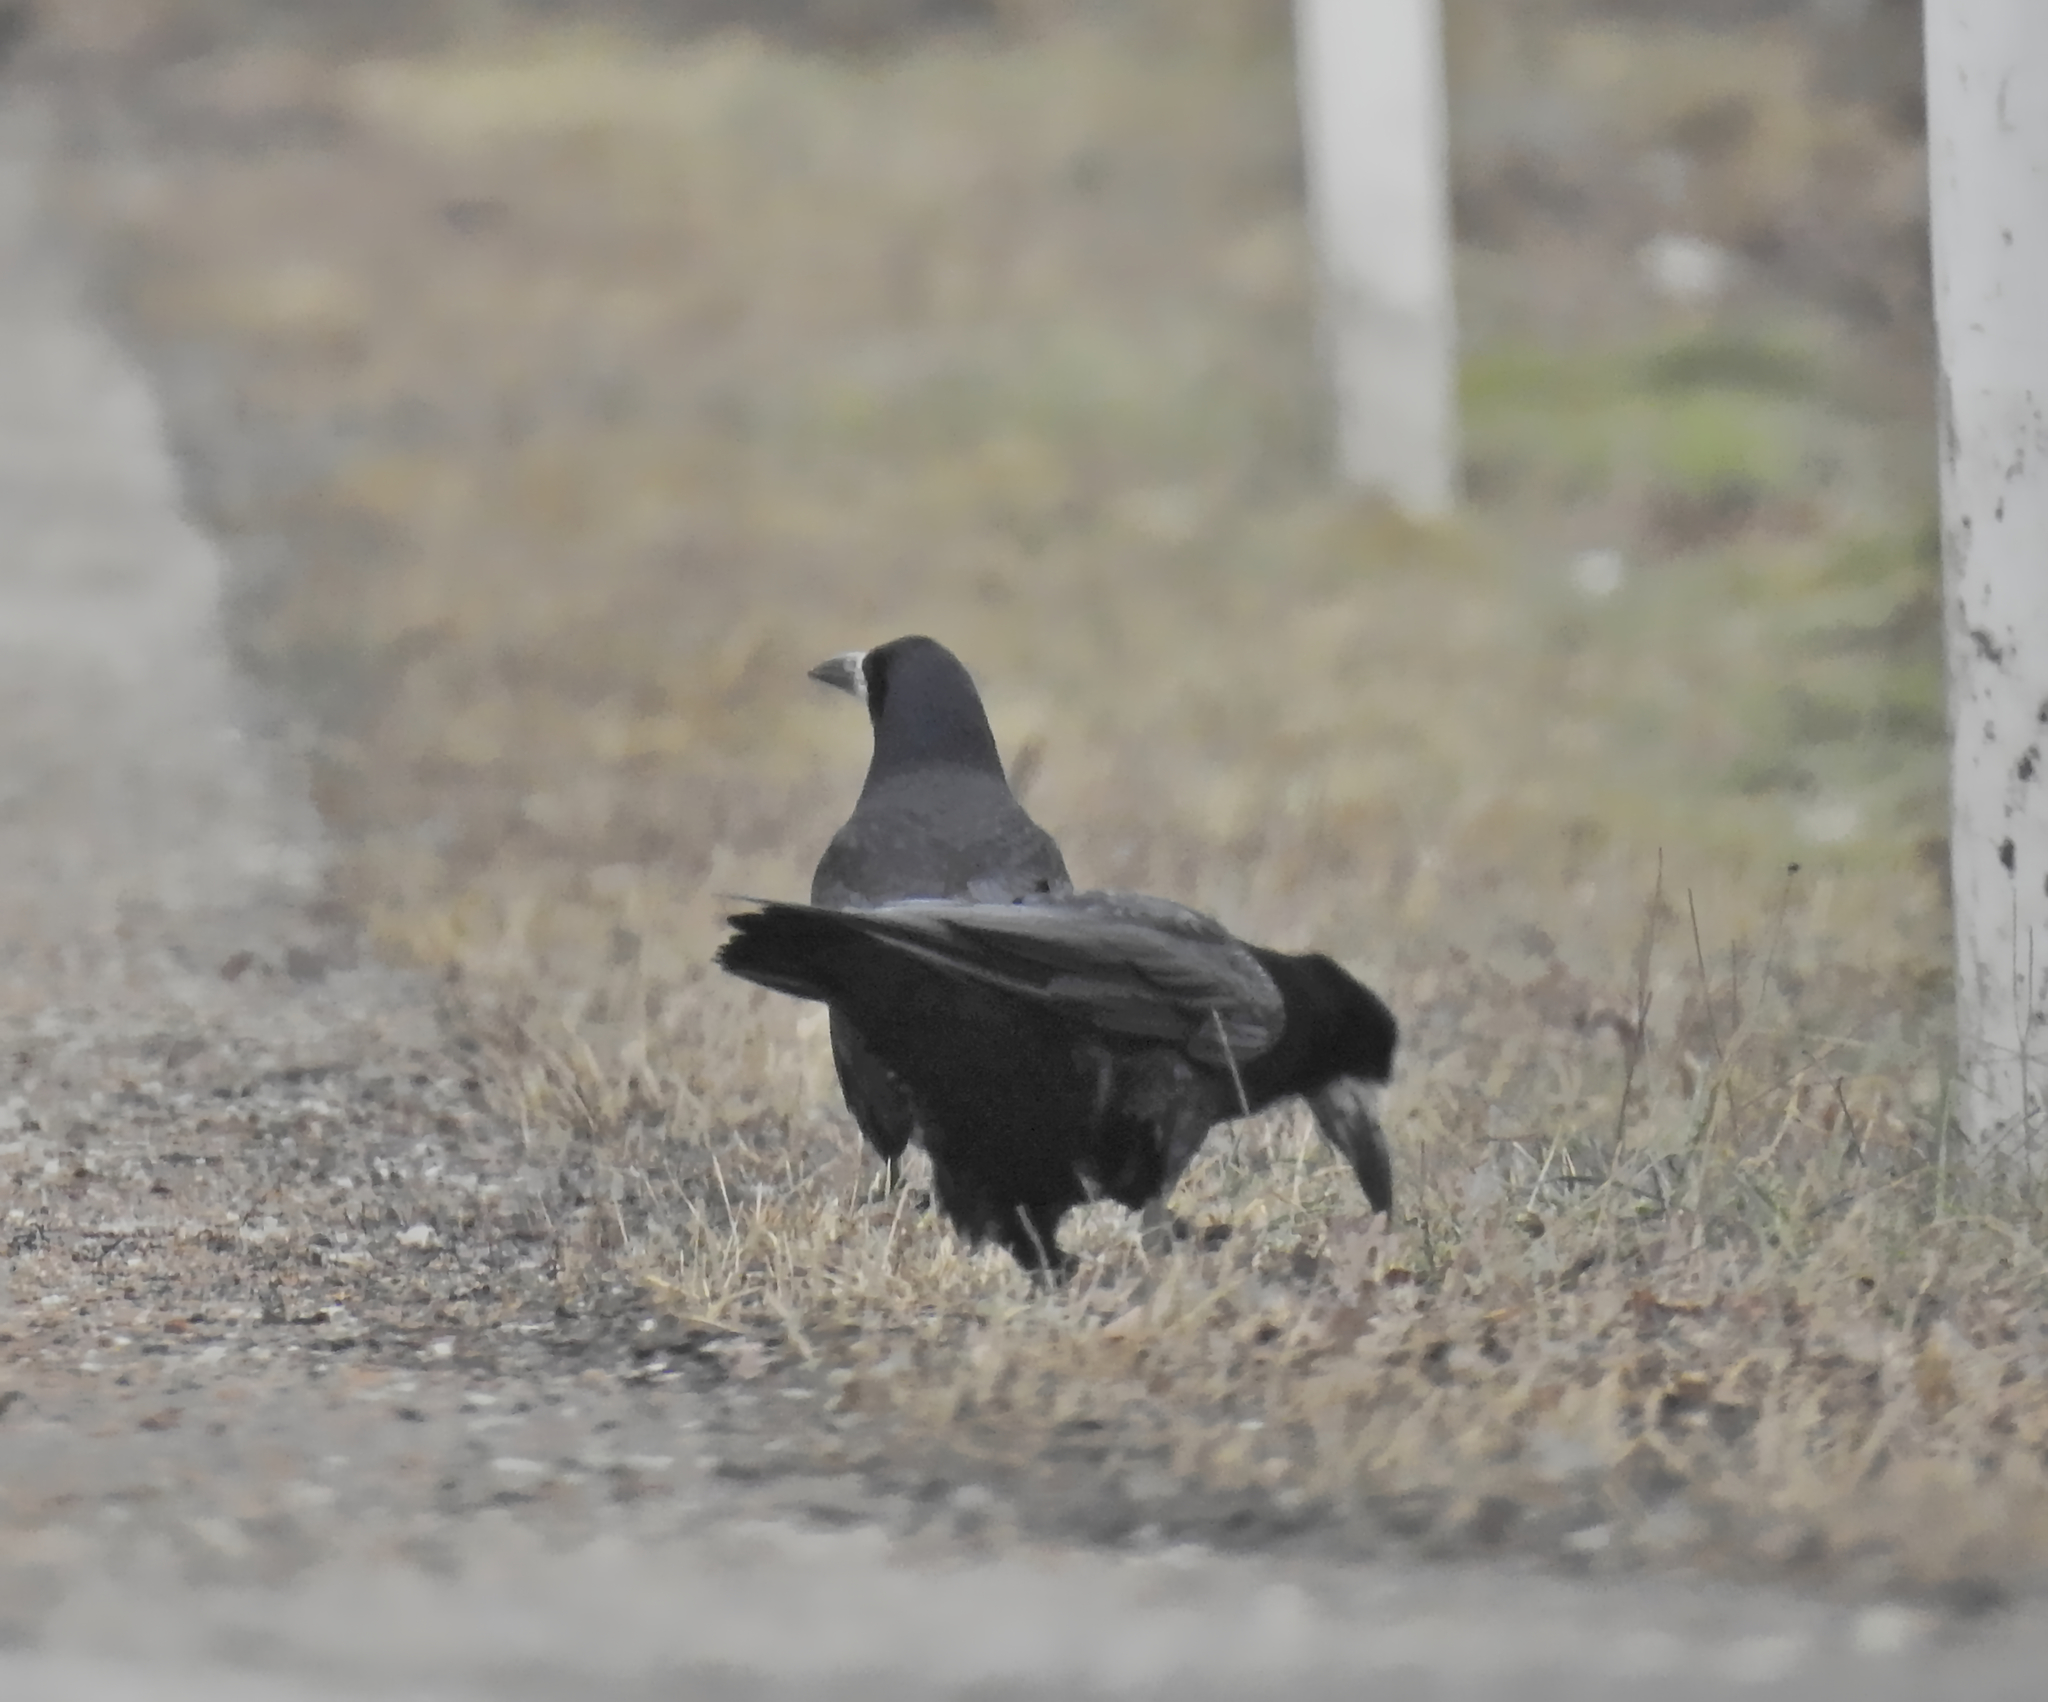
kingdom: Animalia
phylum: Chordata
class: Aves
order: Passeriformes
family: Corvidae
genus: Corvus
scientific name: Corvus frugilegus
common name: Rook
